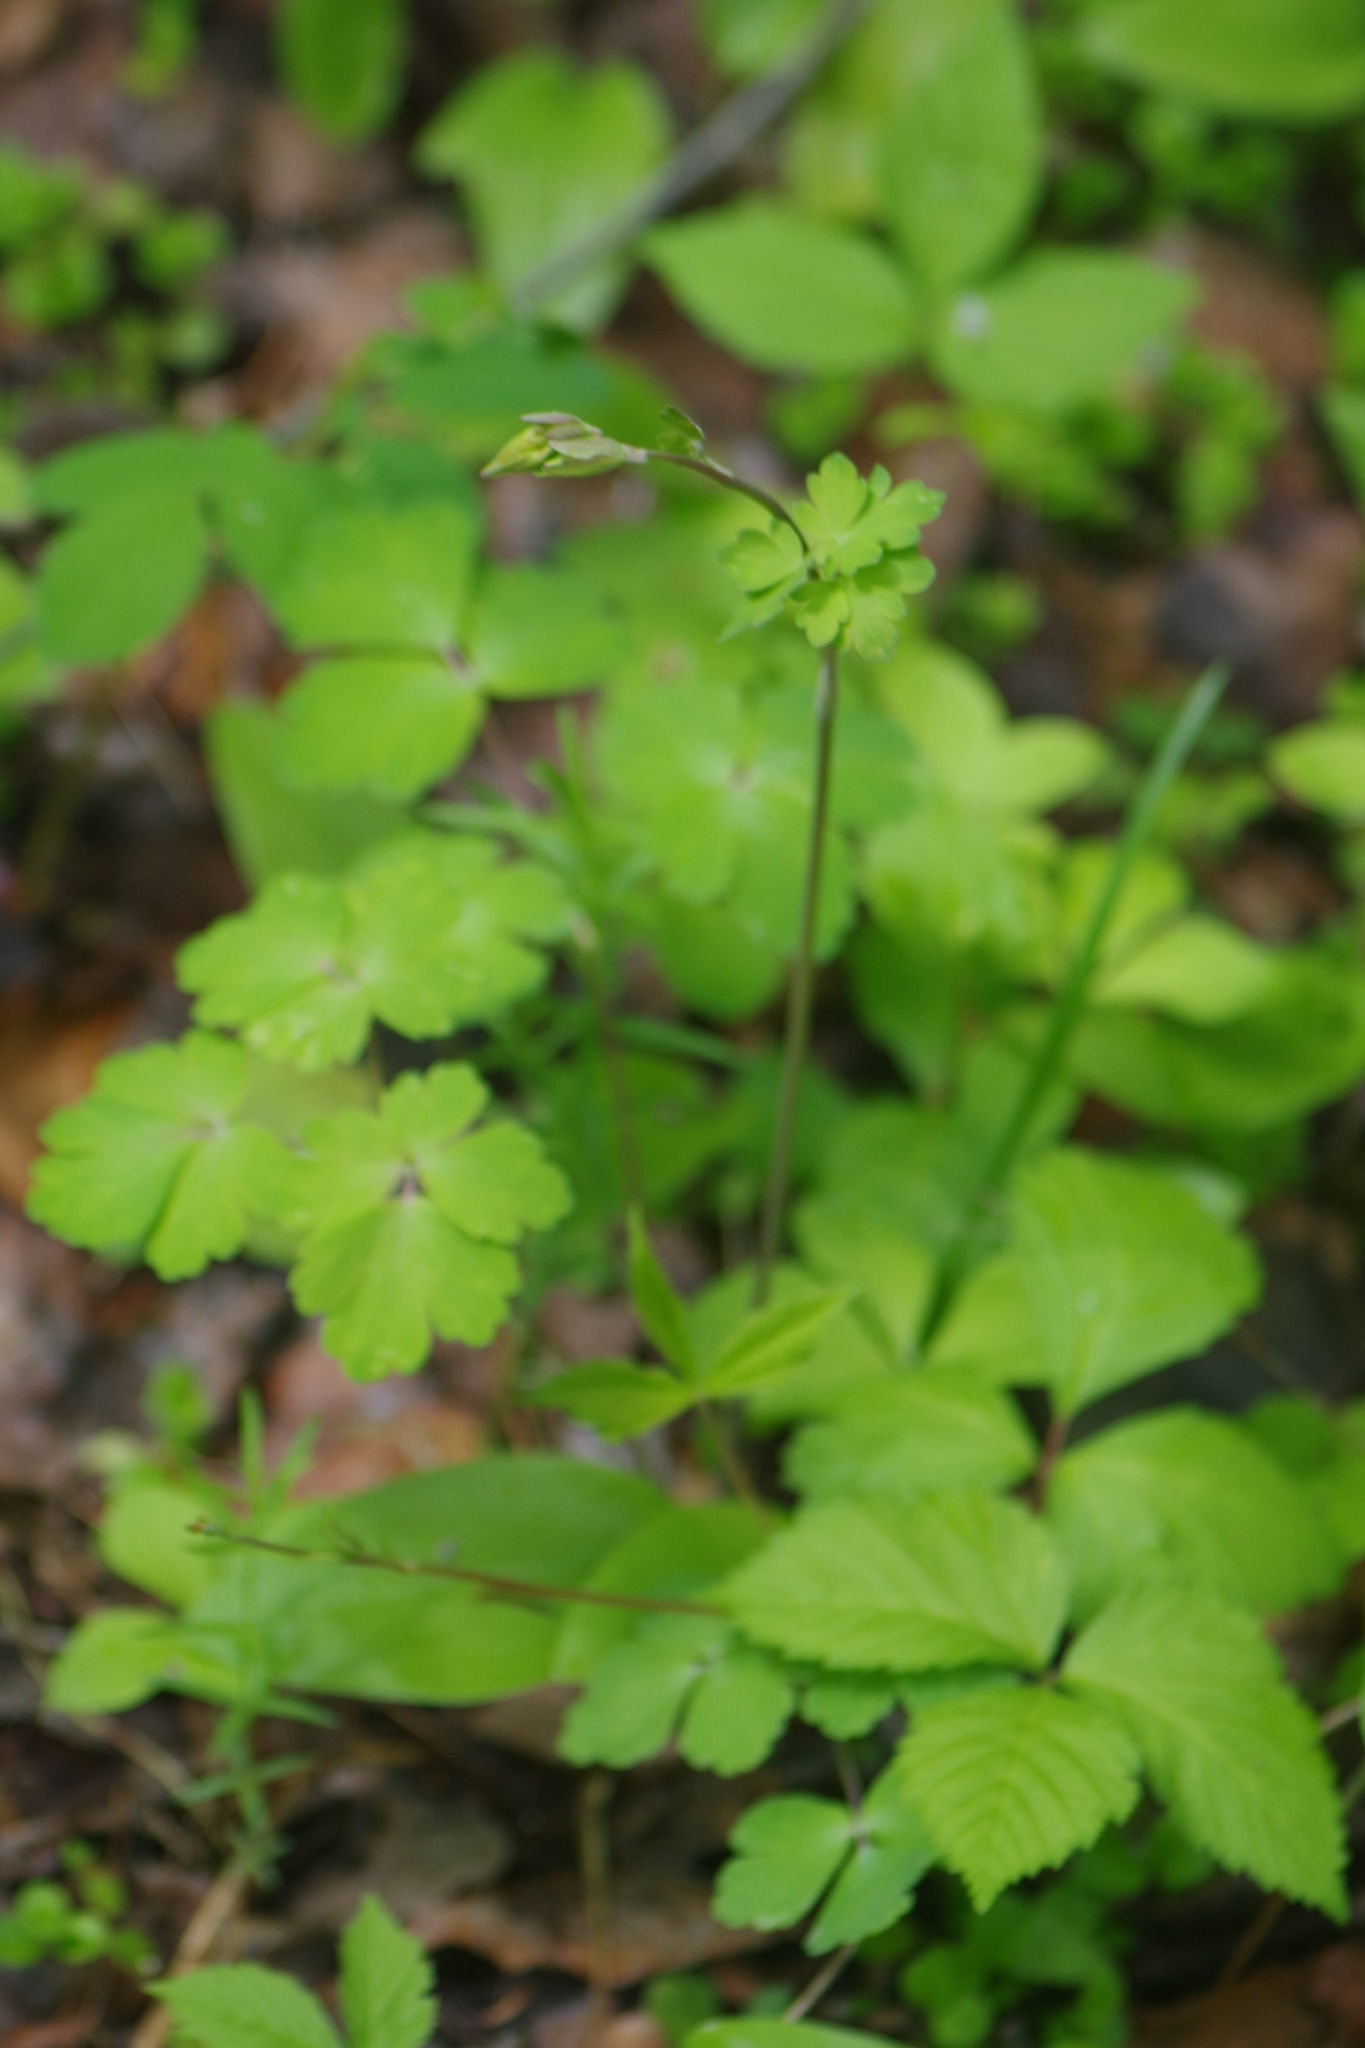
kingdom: Plantae
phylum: Tracheophyta
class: Magnoliopsida
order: Ranunculales
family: Ranunculaceae
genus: Aquilegia
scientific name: Aquilegia canadensis
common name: American columbine
